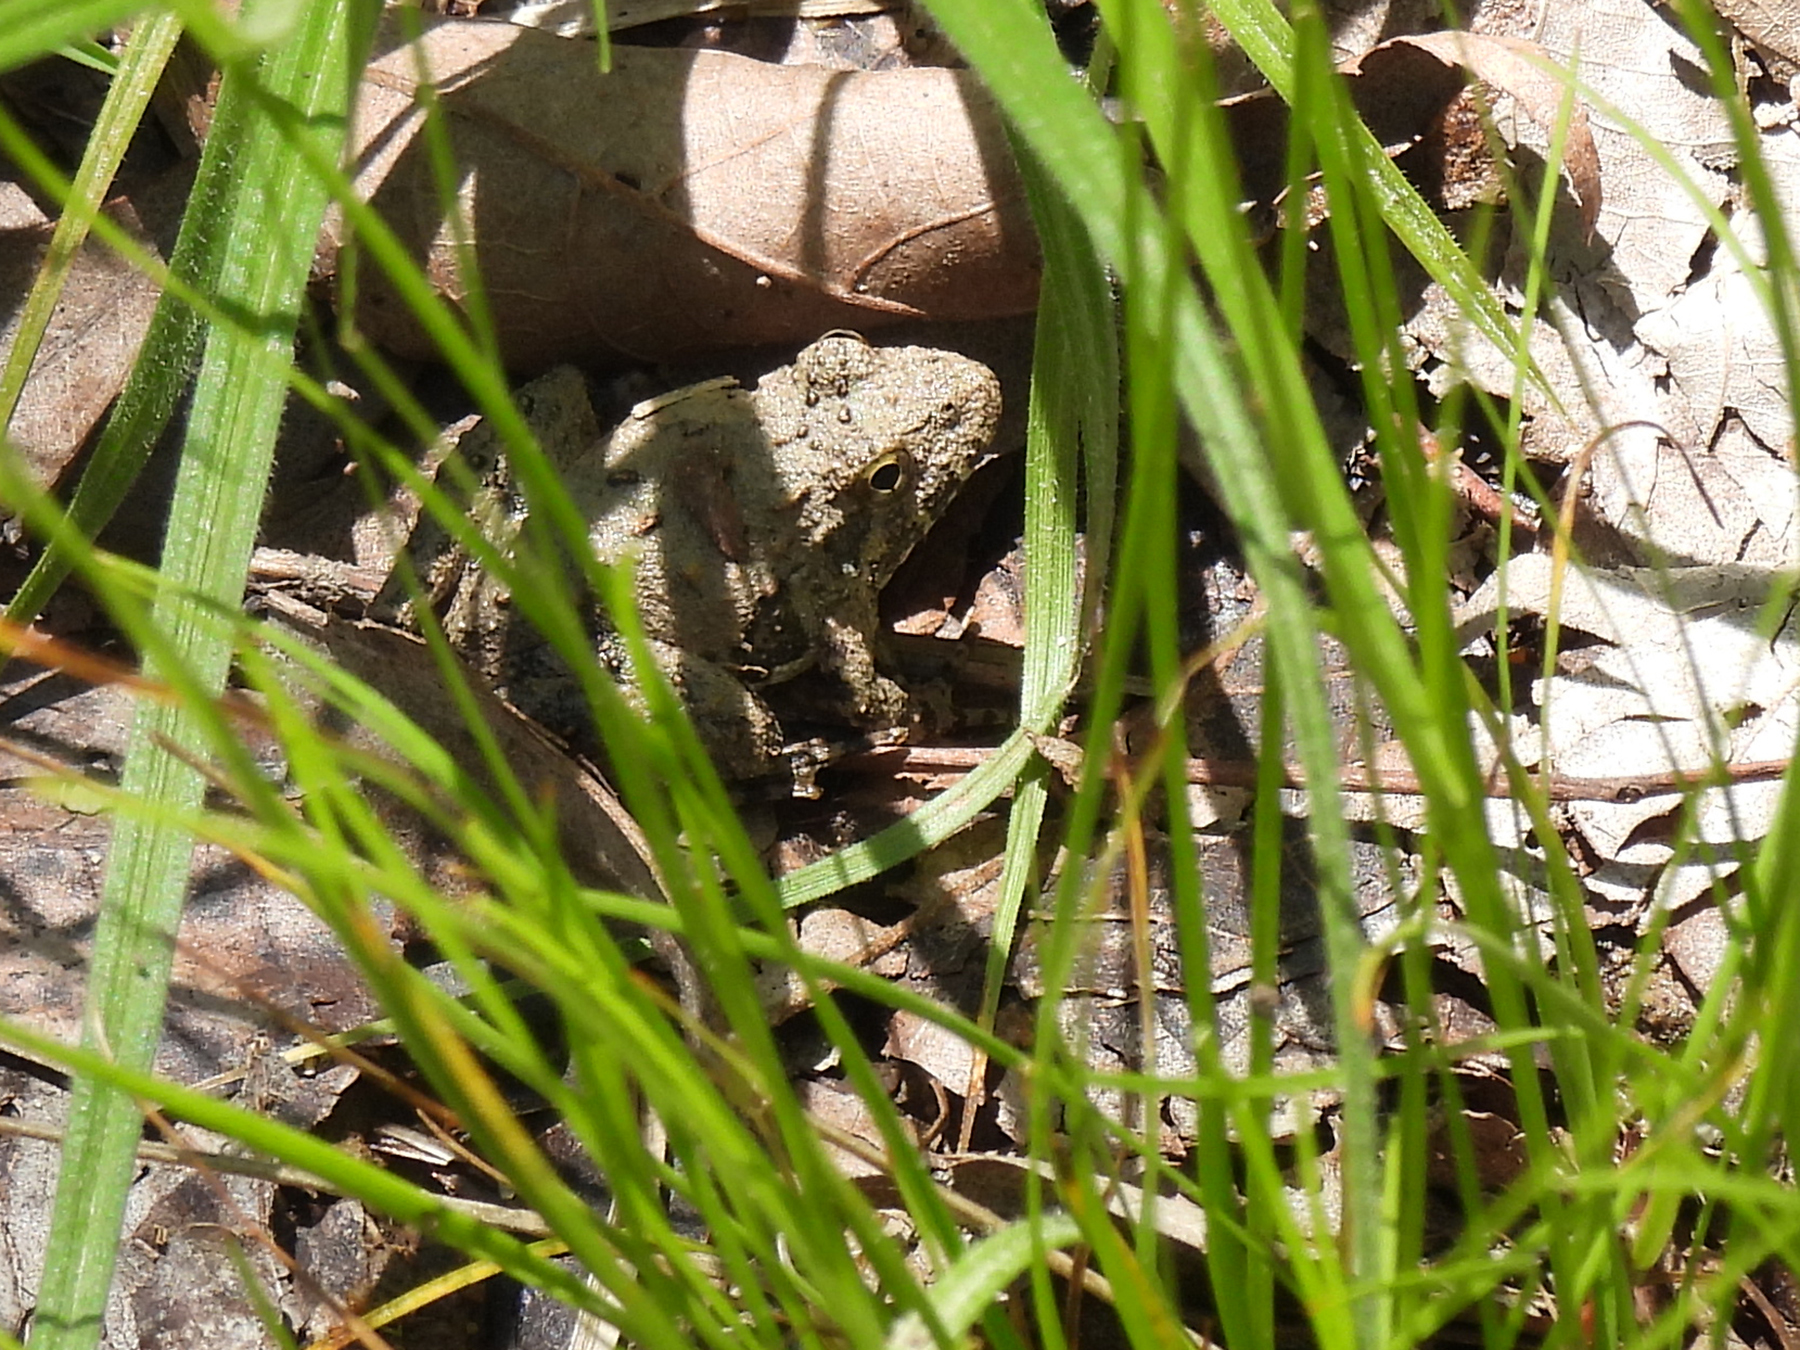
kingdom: Animalia
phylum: Chordata
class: Amphibia
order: Anura
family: Hylidae
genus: Acris
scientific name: Acris blanchardi
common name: Blanchard's cricket frog
